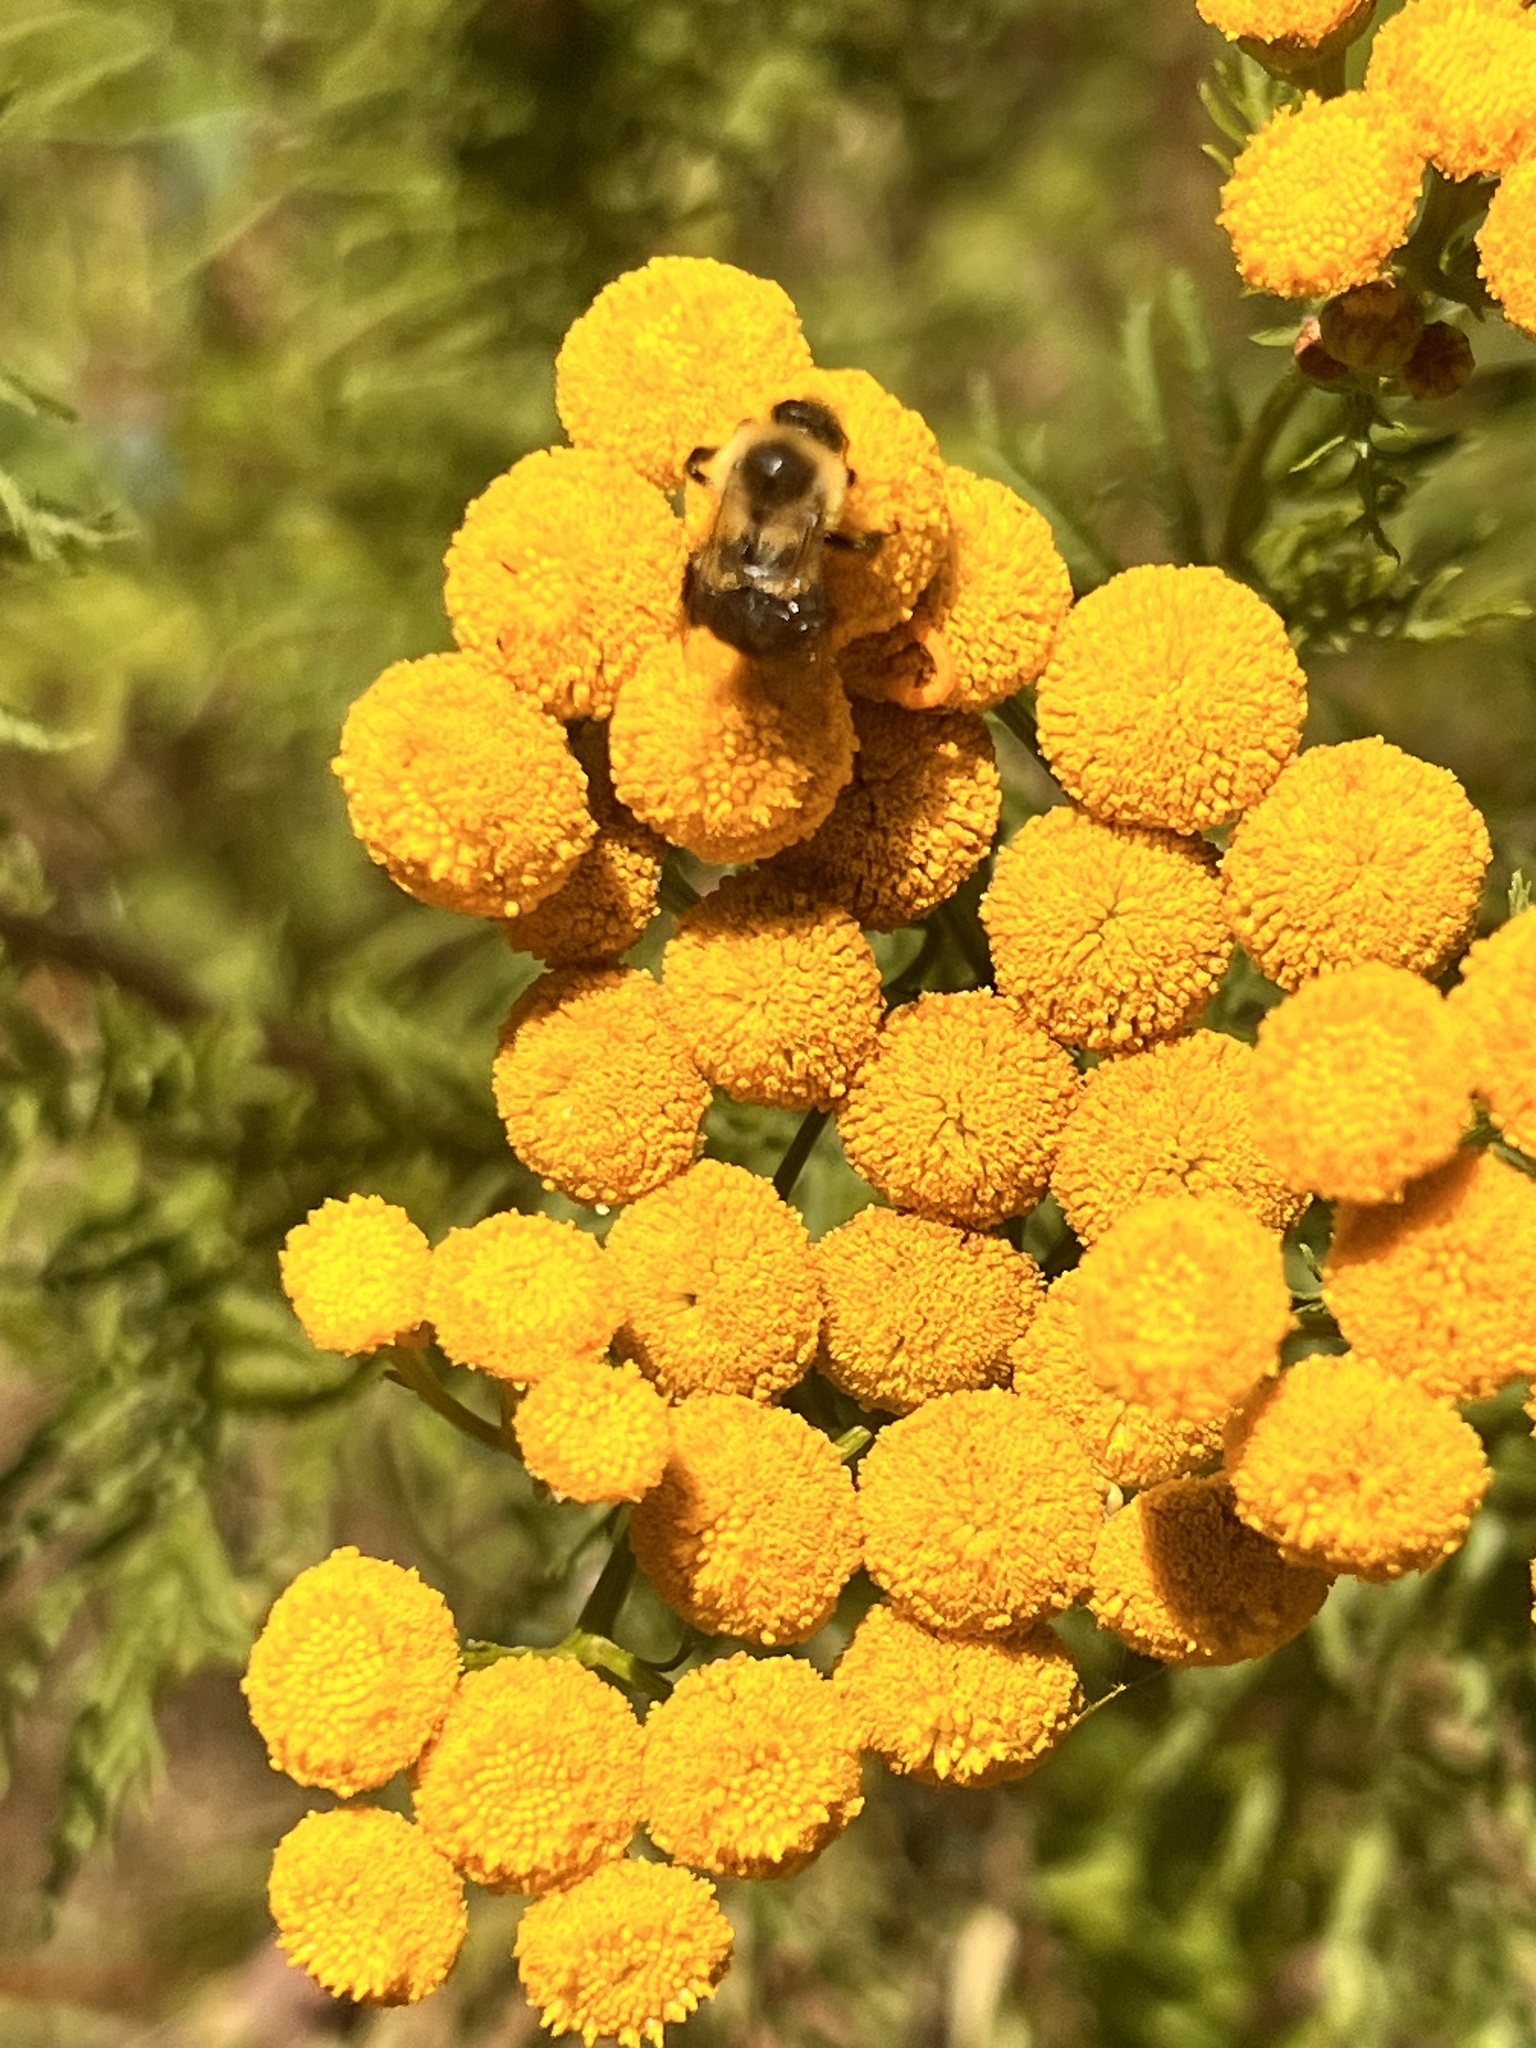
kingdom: Animalia
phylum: Arthropoda
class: Insecta
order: Hymenoptera
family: Apidae
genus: Bombus
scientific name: Bombus impatiens
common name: Common eastern bumble bee
